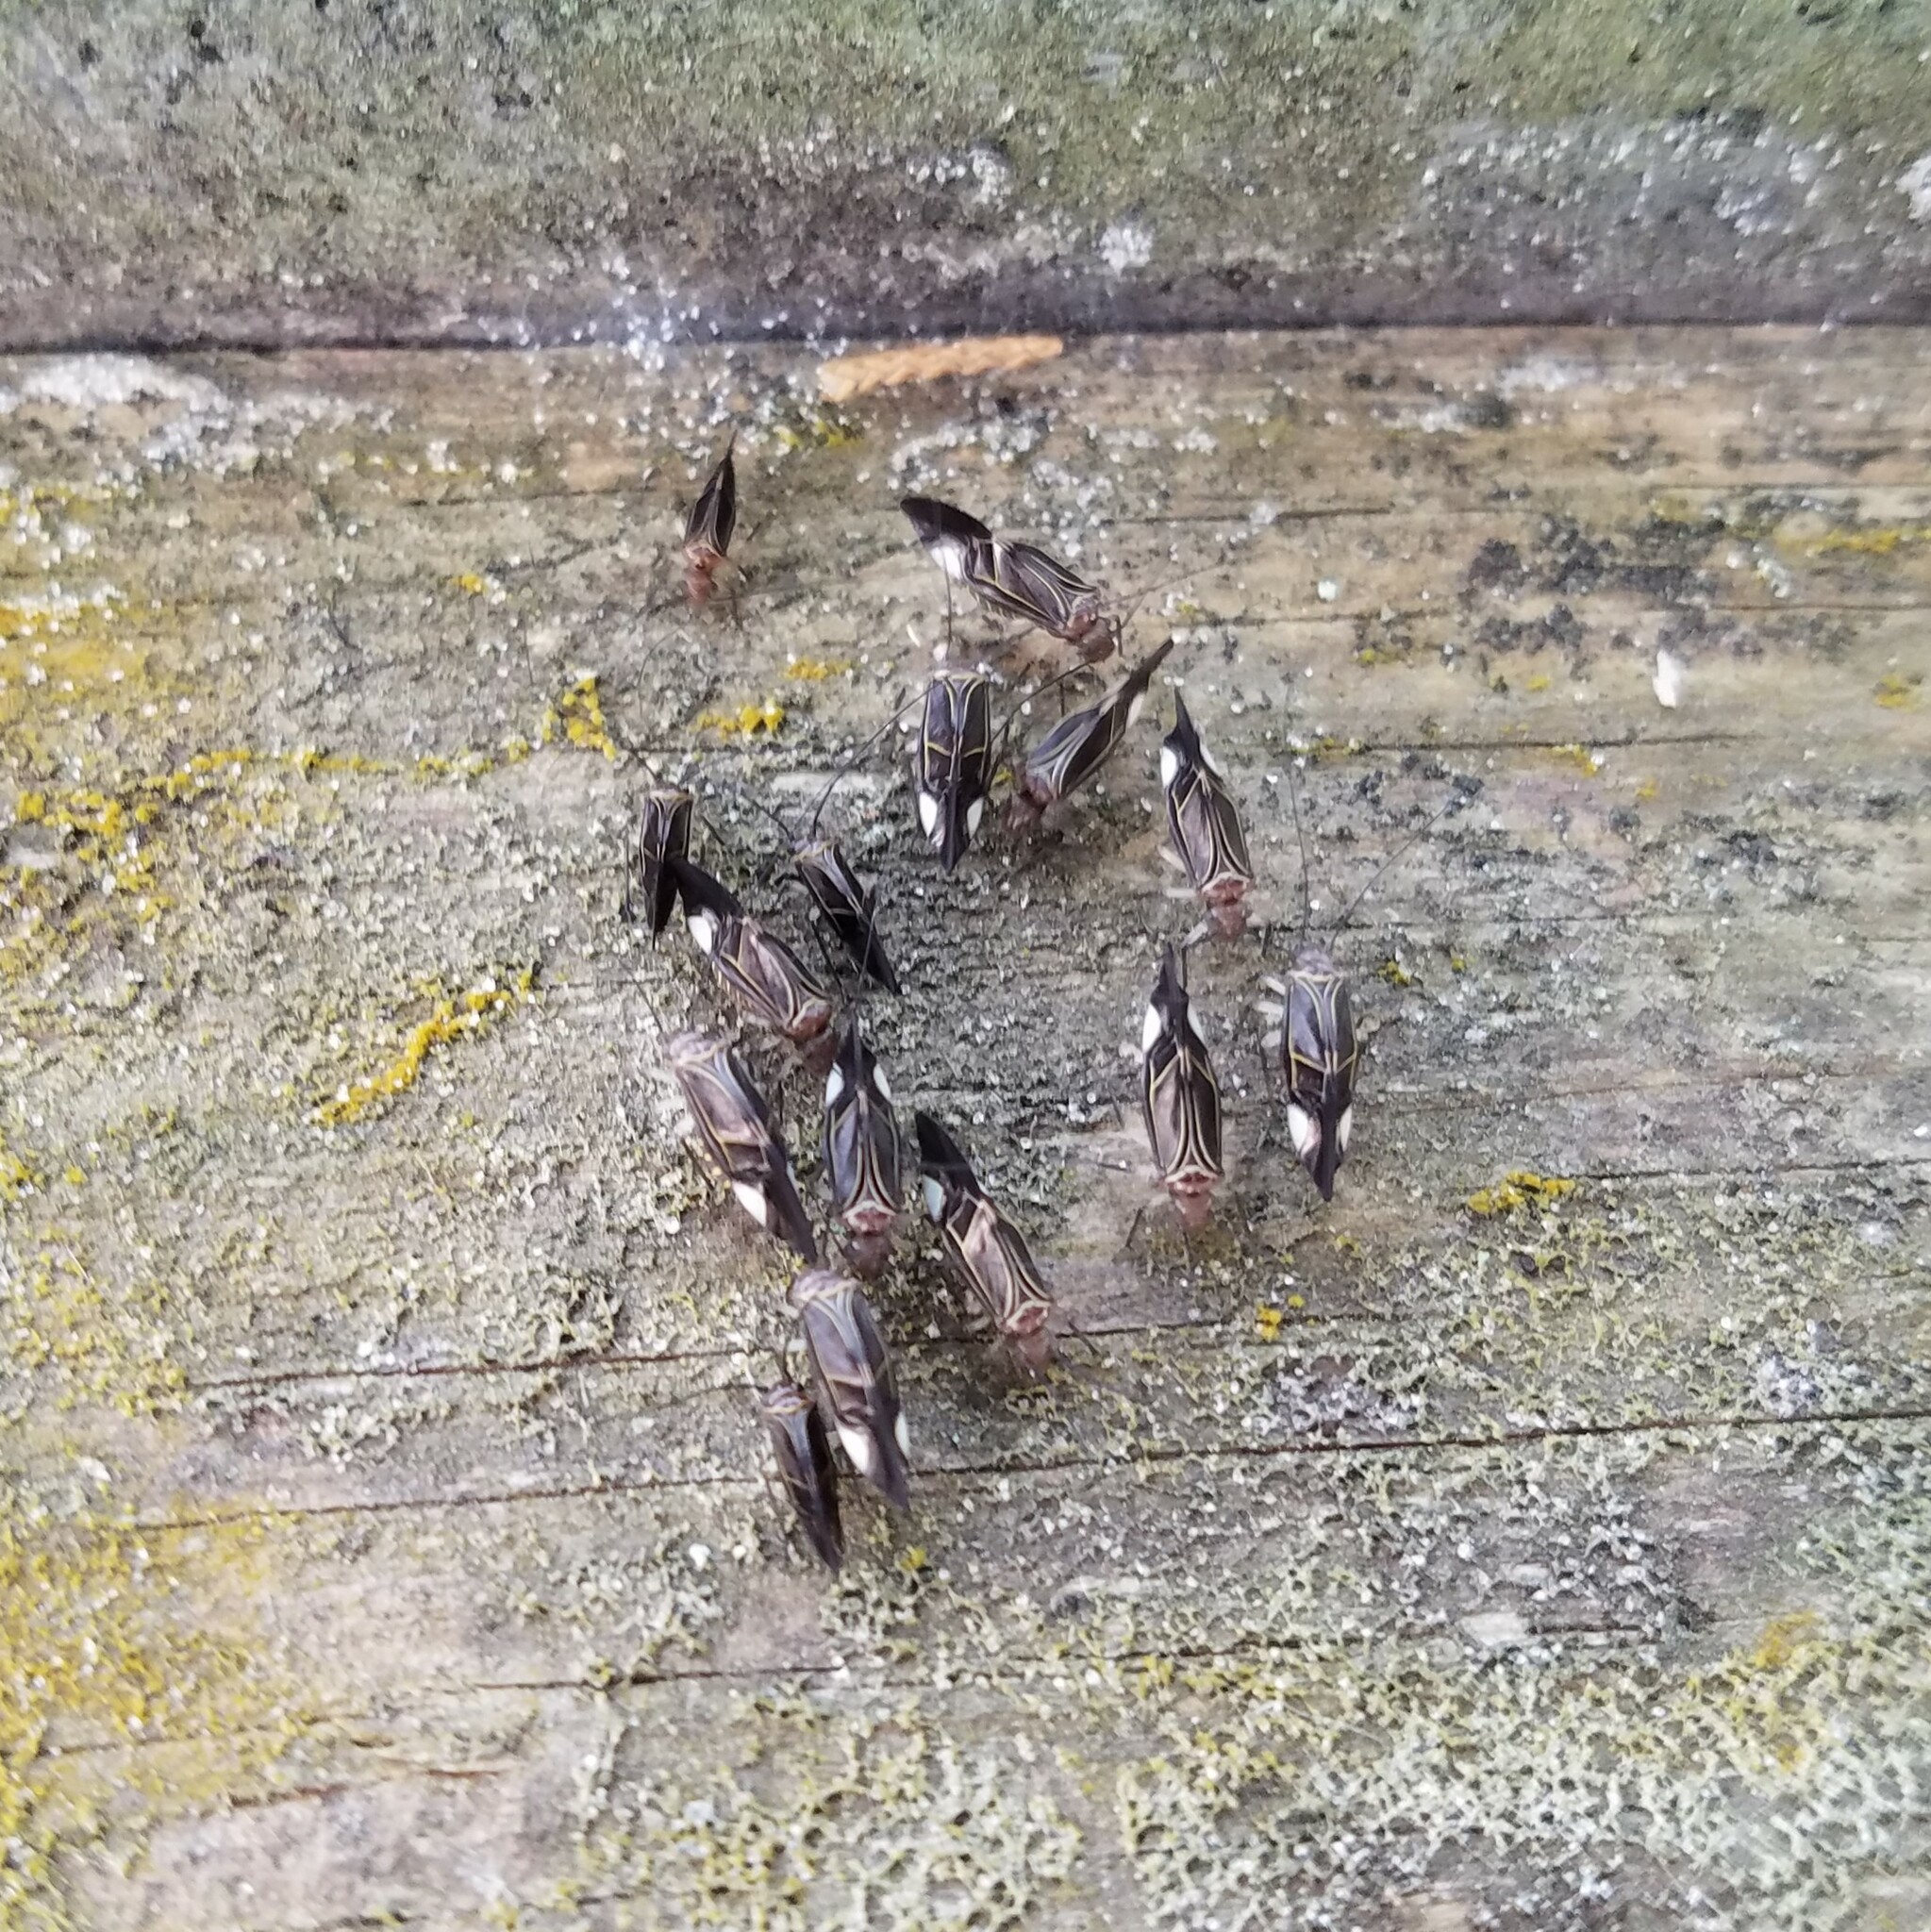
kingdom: Animalia
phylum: Arthropoda
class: Insecta
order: Psocodea
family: Psocidae
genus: Cerastipsocus
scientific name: Cerastipsocus venosus
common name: Tree cattle
